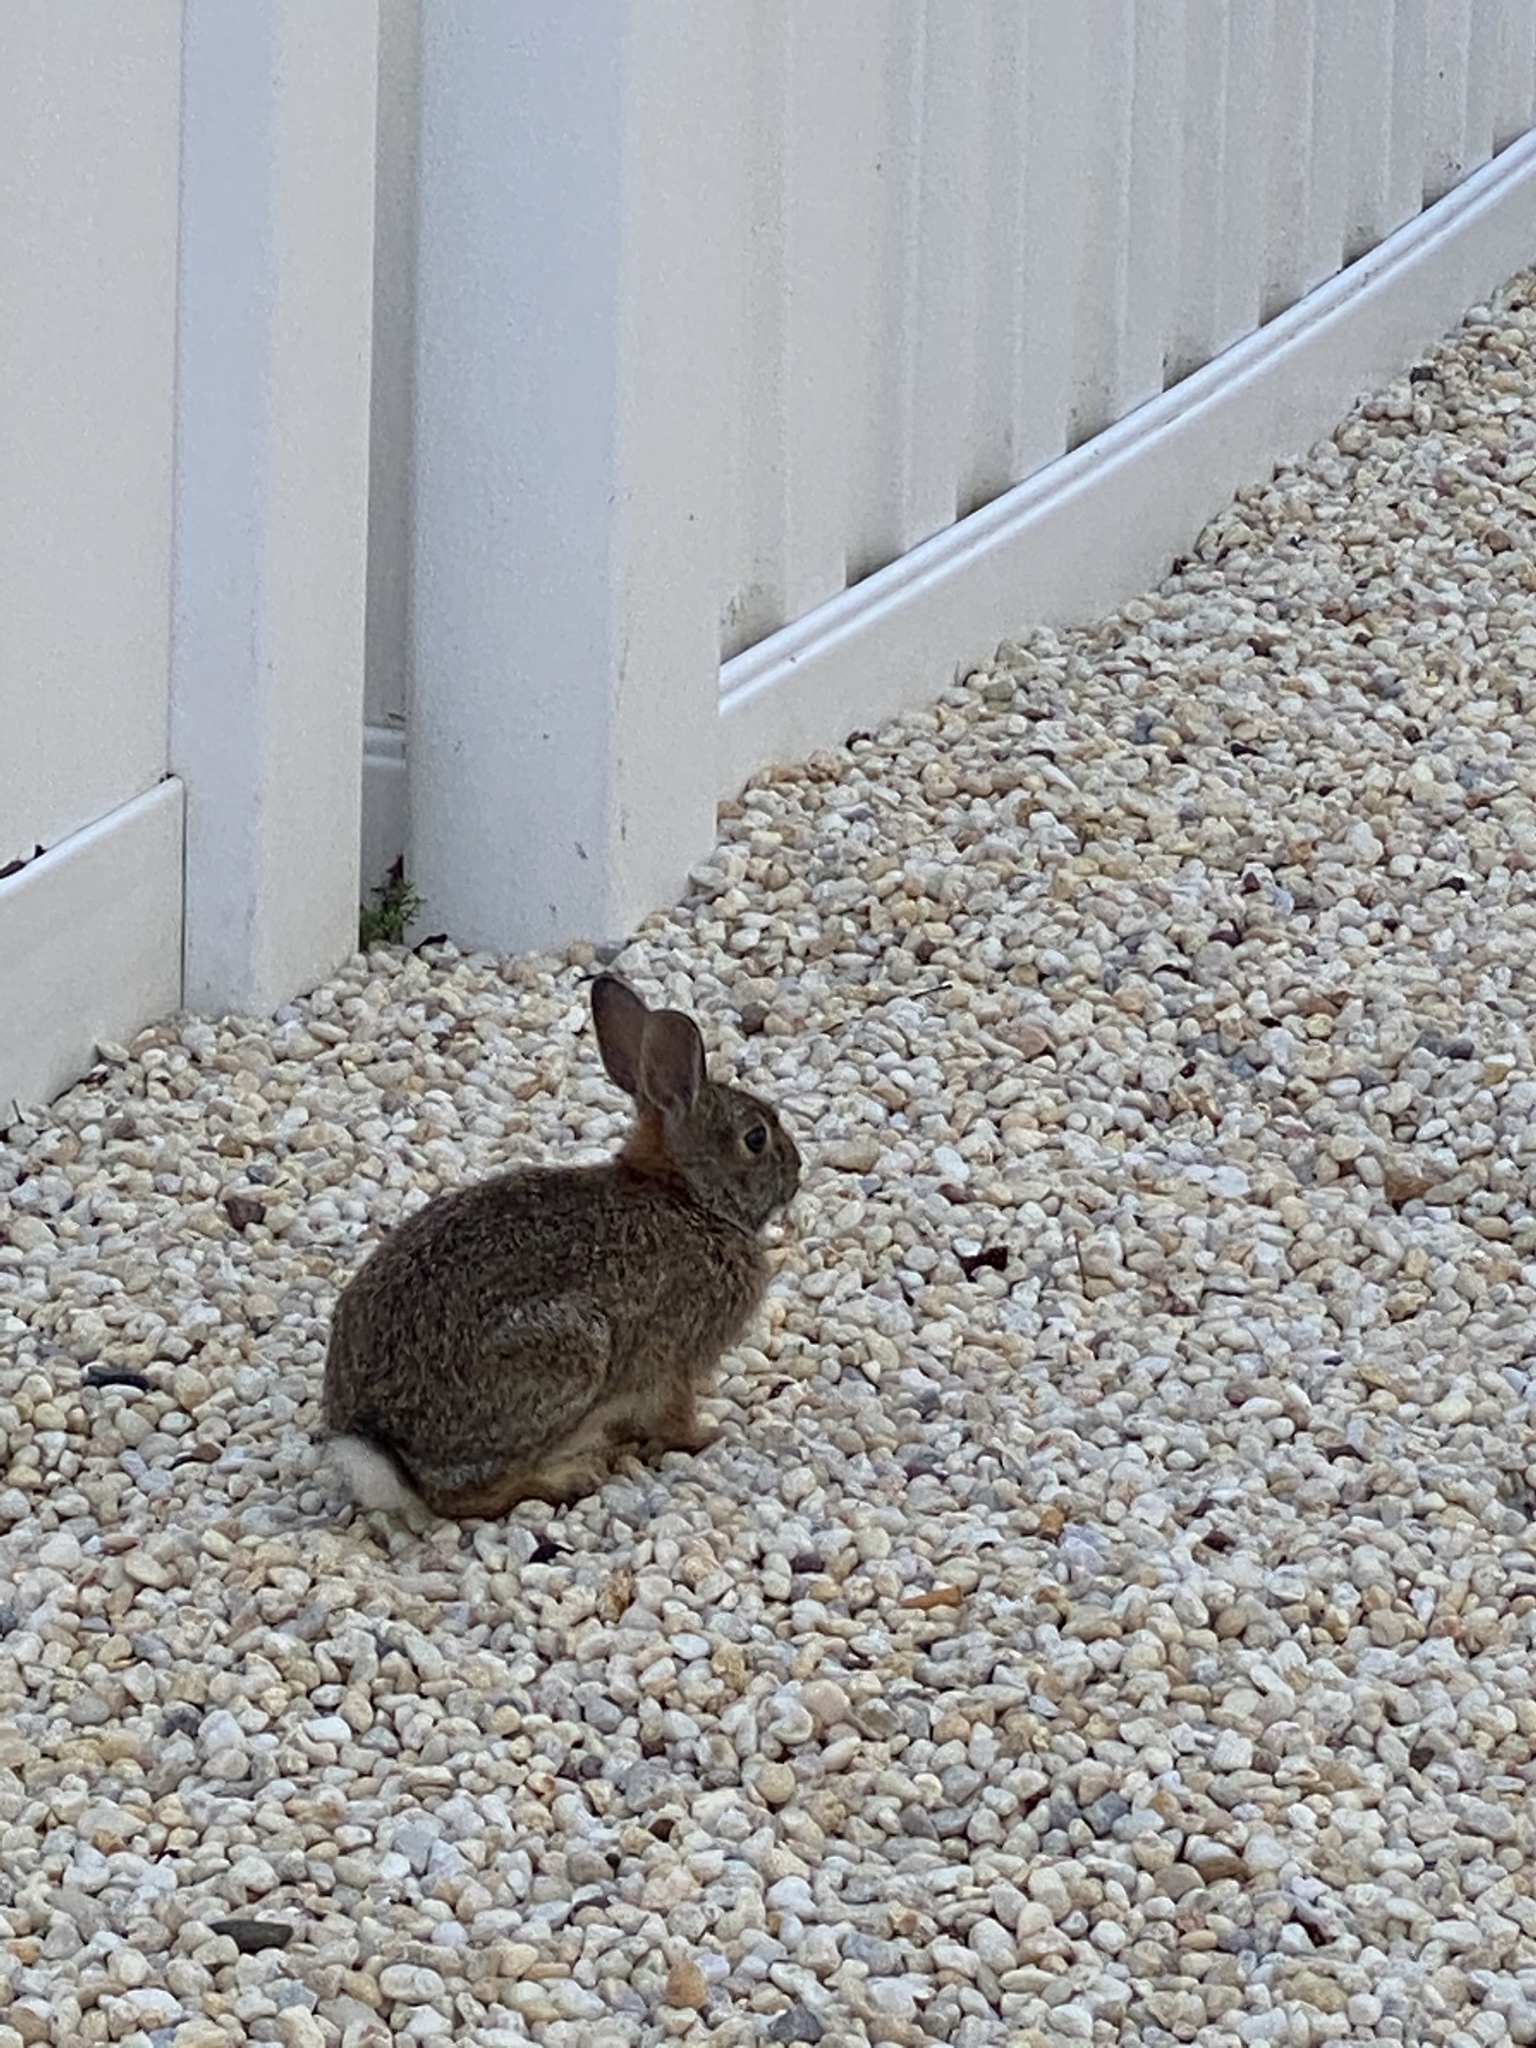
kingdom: Animalia
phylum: Chordata
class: Mammalia
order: Lagomorpha
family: Leporidae
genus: Sylvilagus
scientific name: Sylvilagus floridanus
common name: Eastern cottontail
